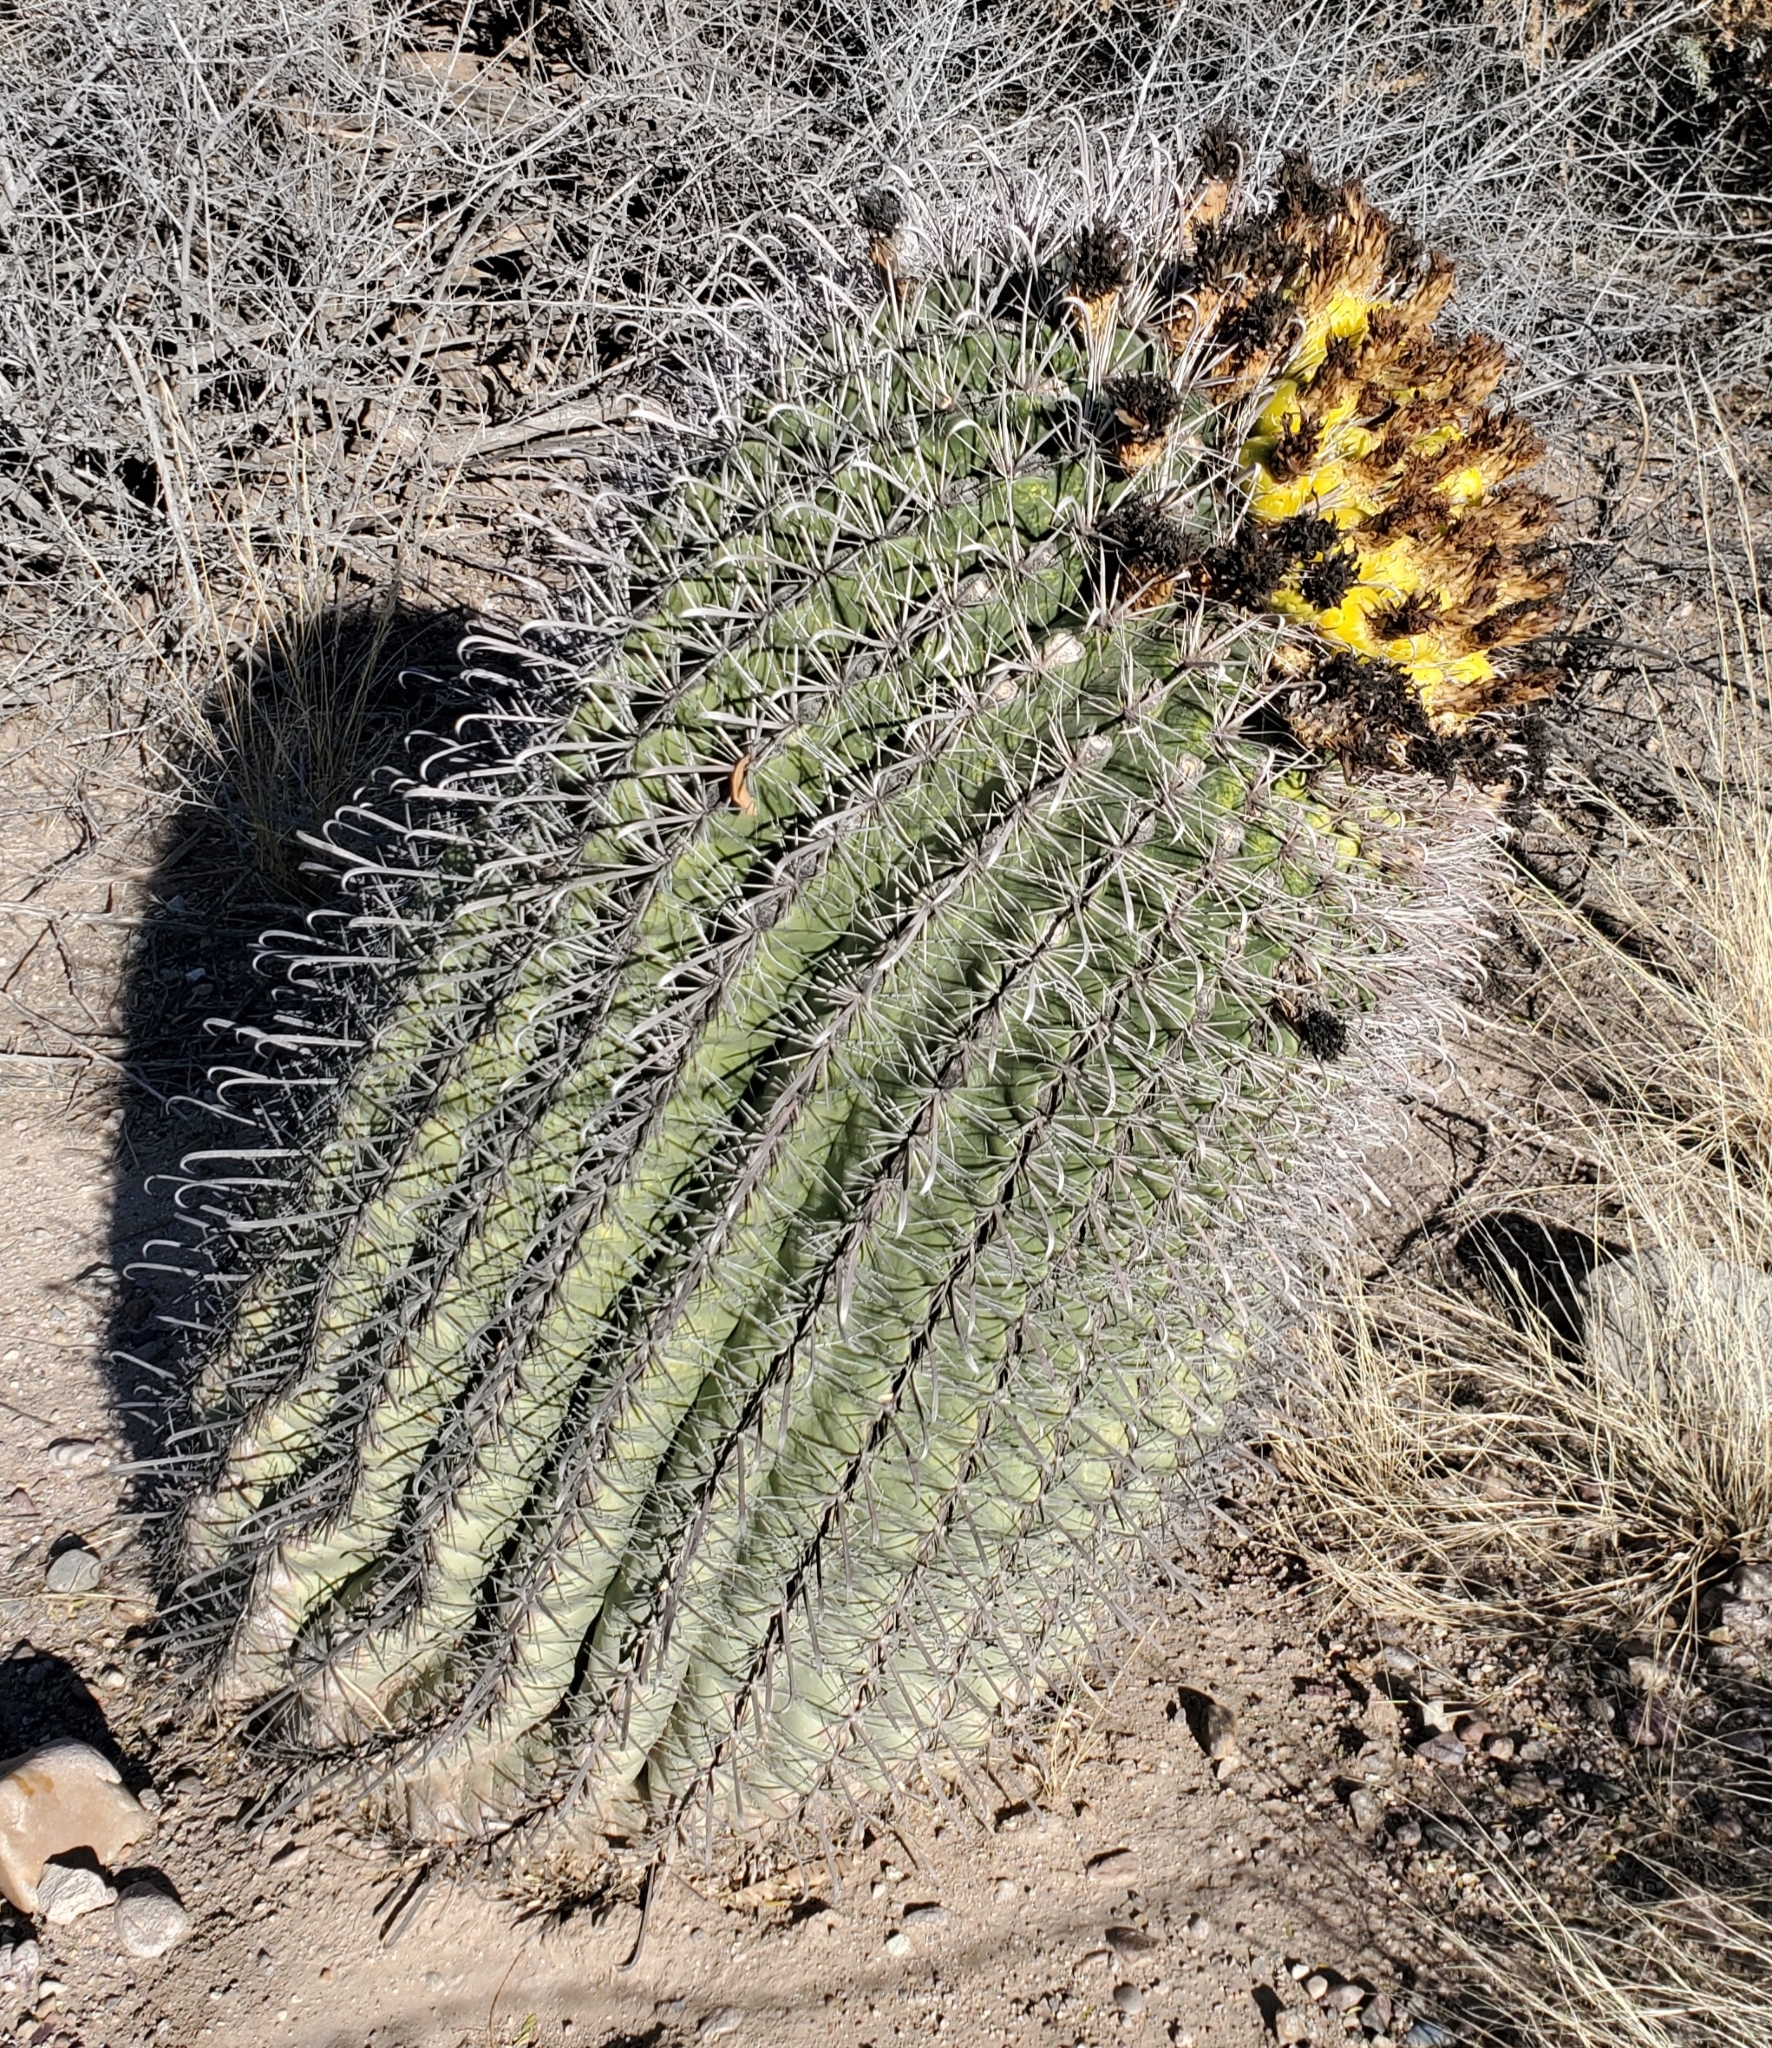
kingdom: Plantae
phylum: Tracheophyta
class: Magnoliopsida
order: Caryophyllales
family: Cactaceae
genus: Ferocactus
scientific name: Ferocactus wislizeni
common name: Candy barrel cactus
